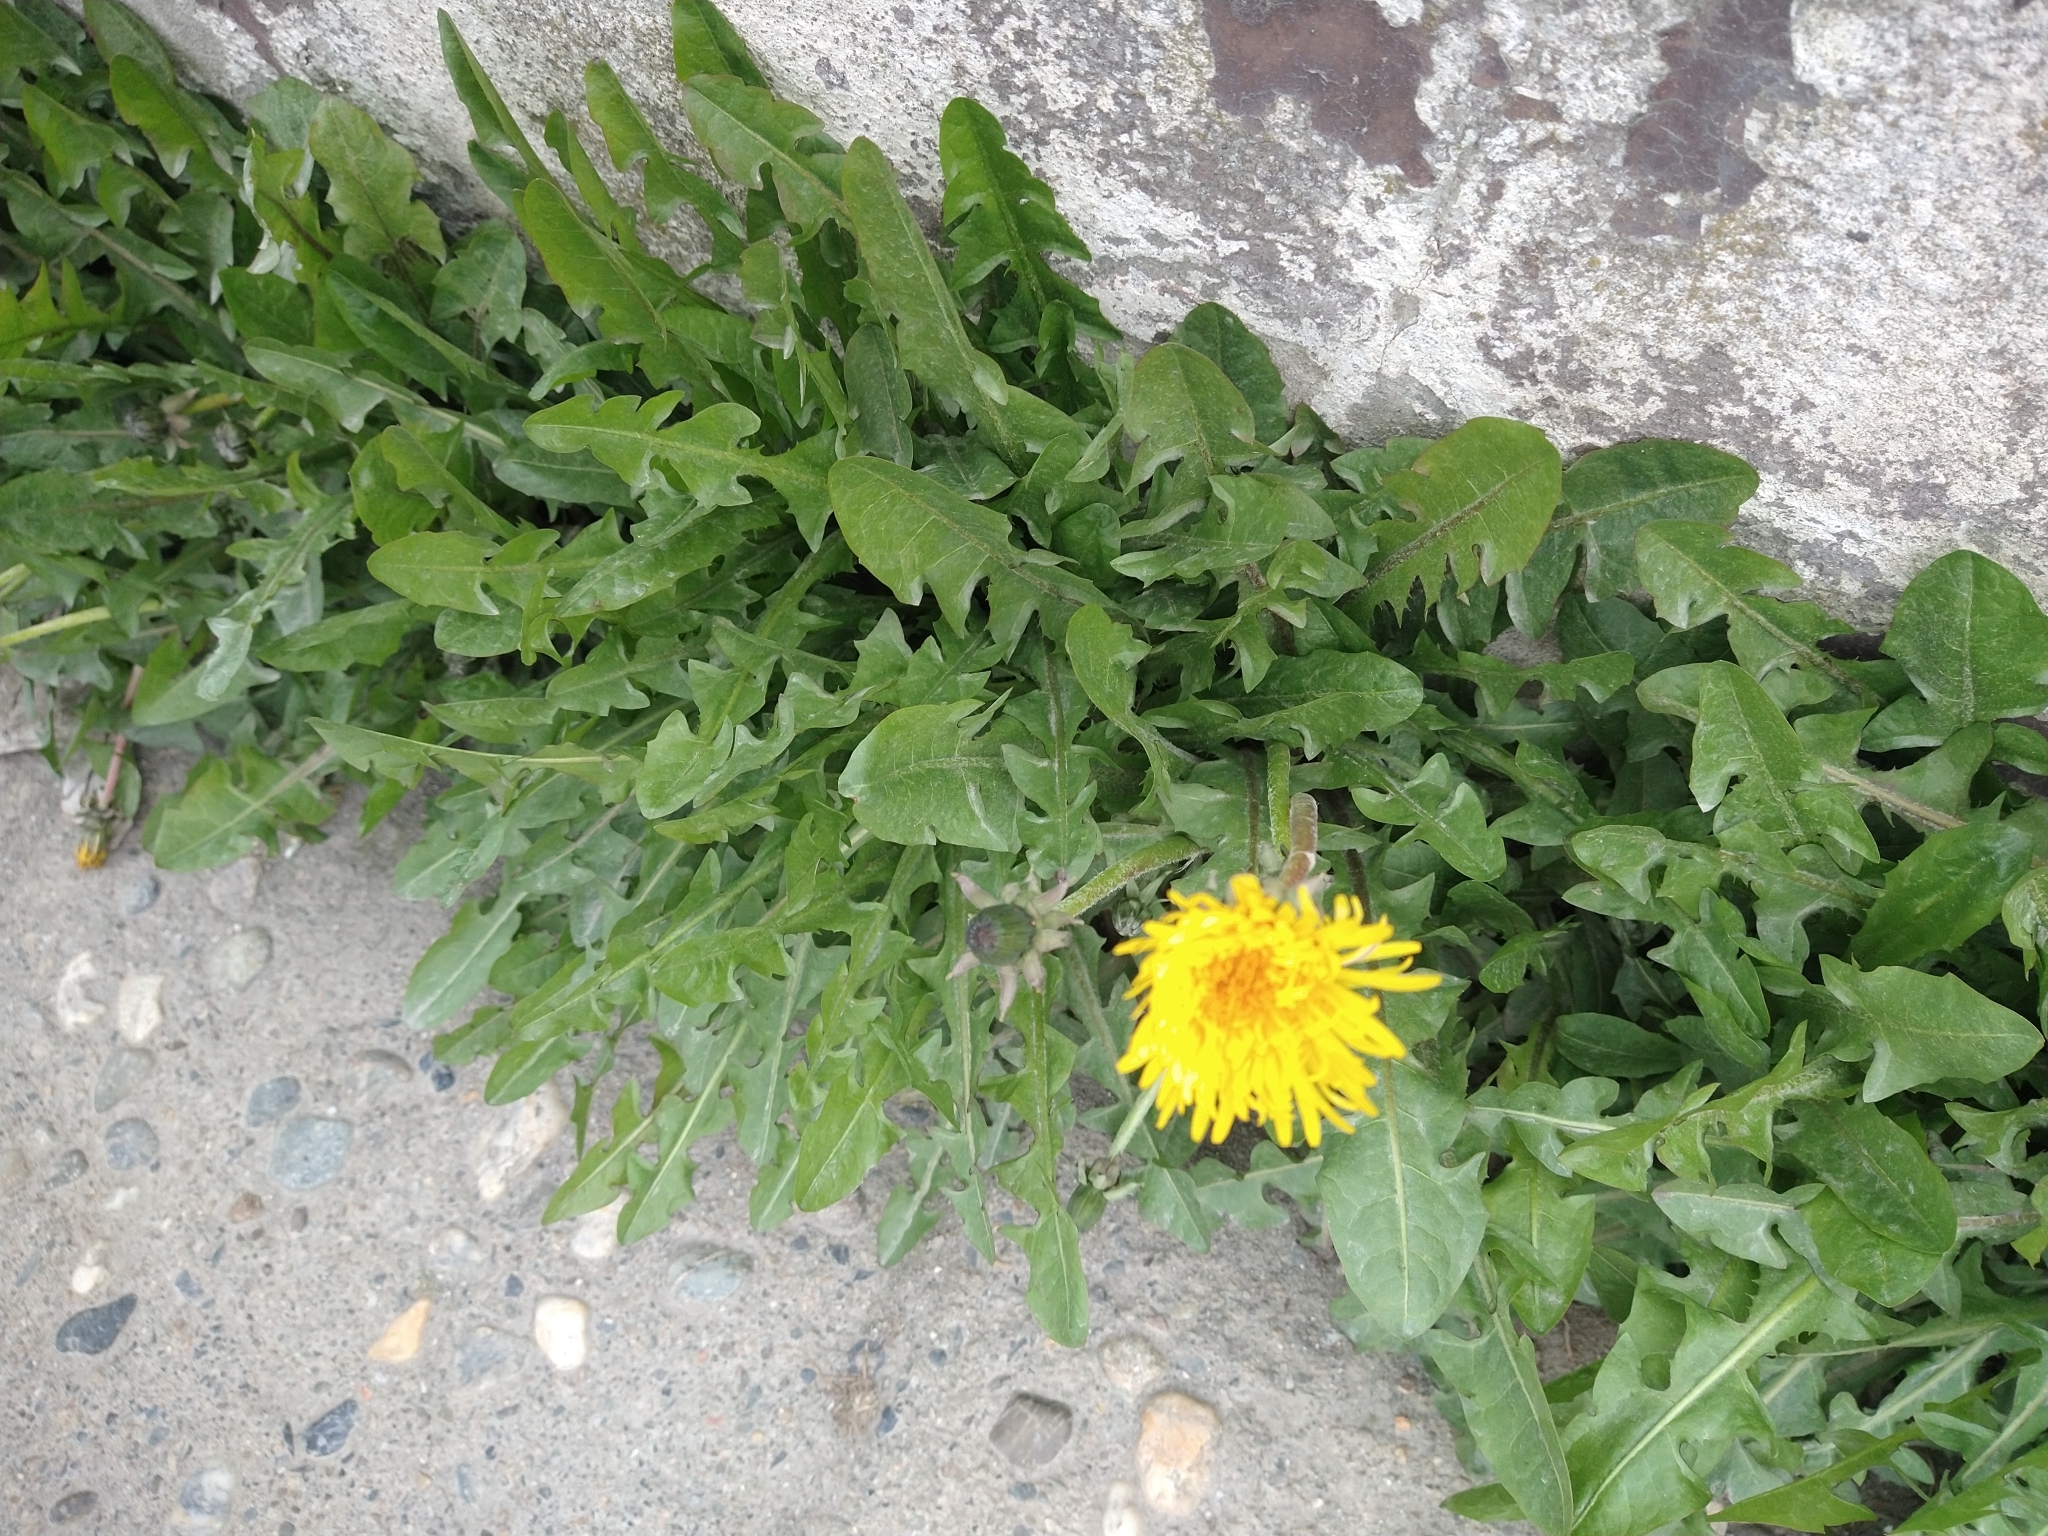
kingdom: Plantae
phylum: Tracheophyta
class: Magnoliopsida
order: Asterales
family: Asteraceae
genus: Taraxacum
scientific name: Taraxacum officinale
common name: Common dandelion
